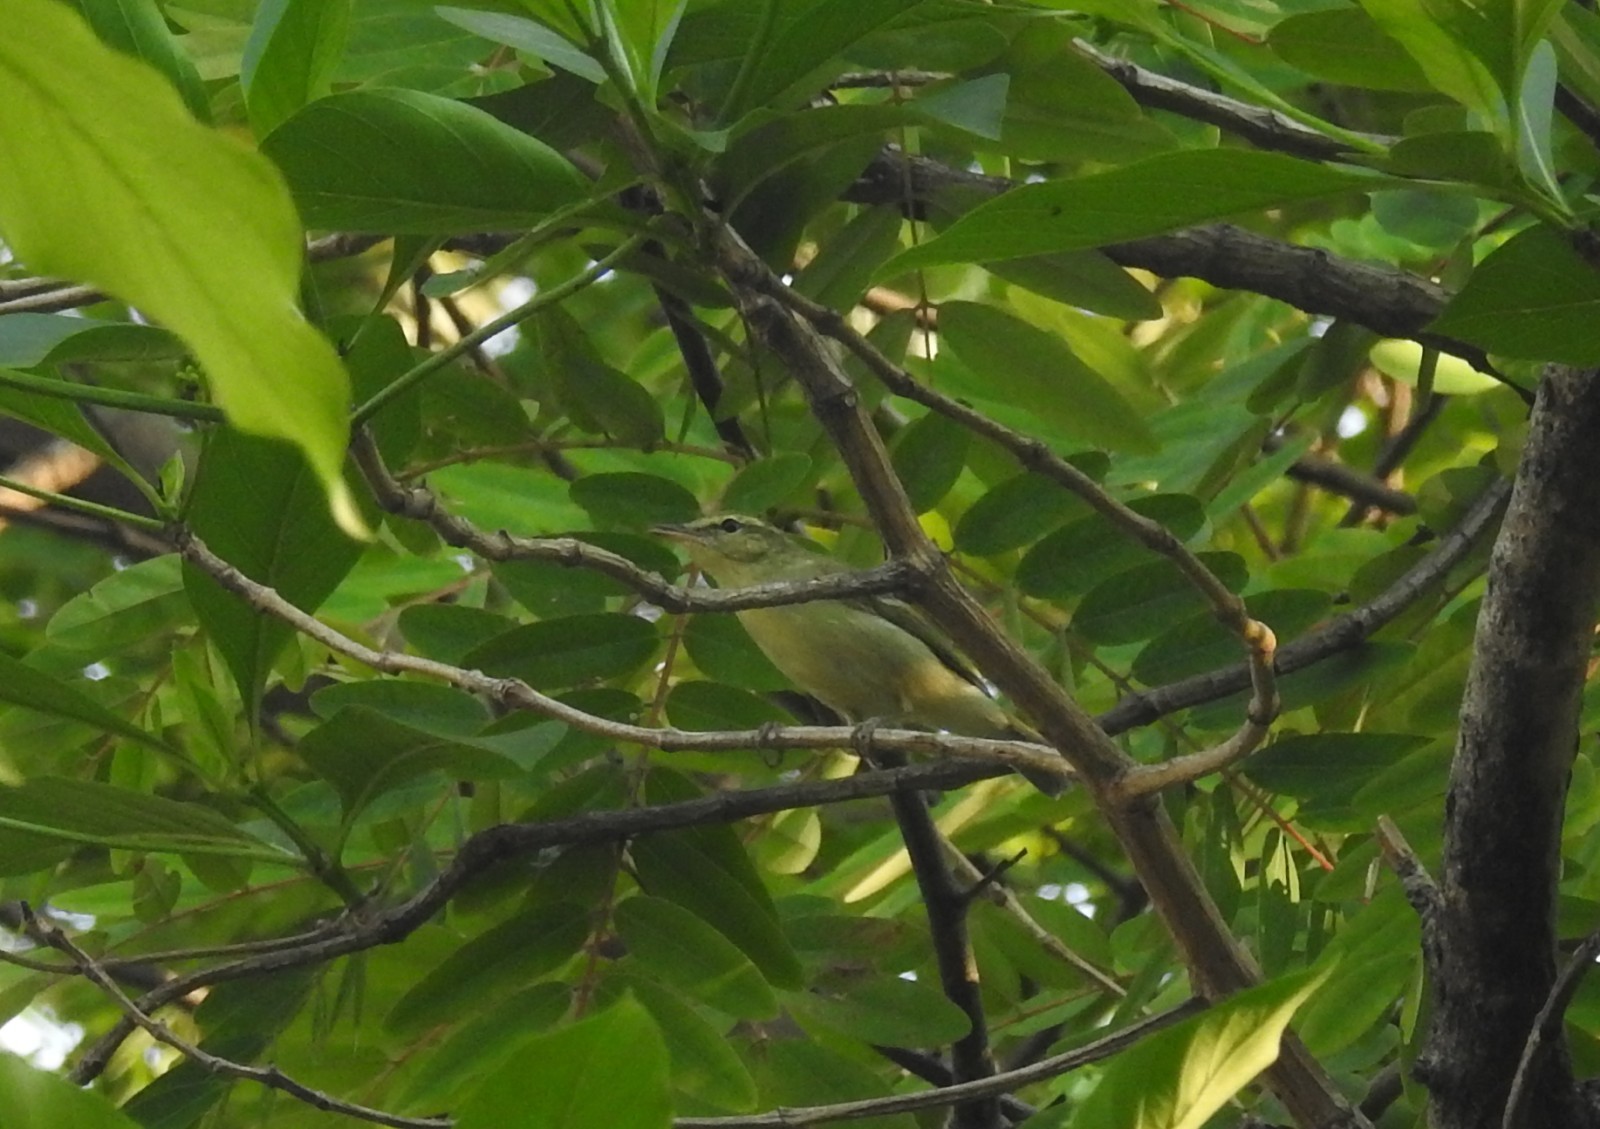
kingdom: Animalia
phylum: Chordata
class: Aves
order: Passeriformes
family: Phylloscopidae
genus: Phylloscopus
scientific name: Phylloscopus nitidus
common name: Green warbler
